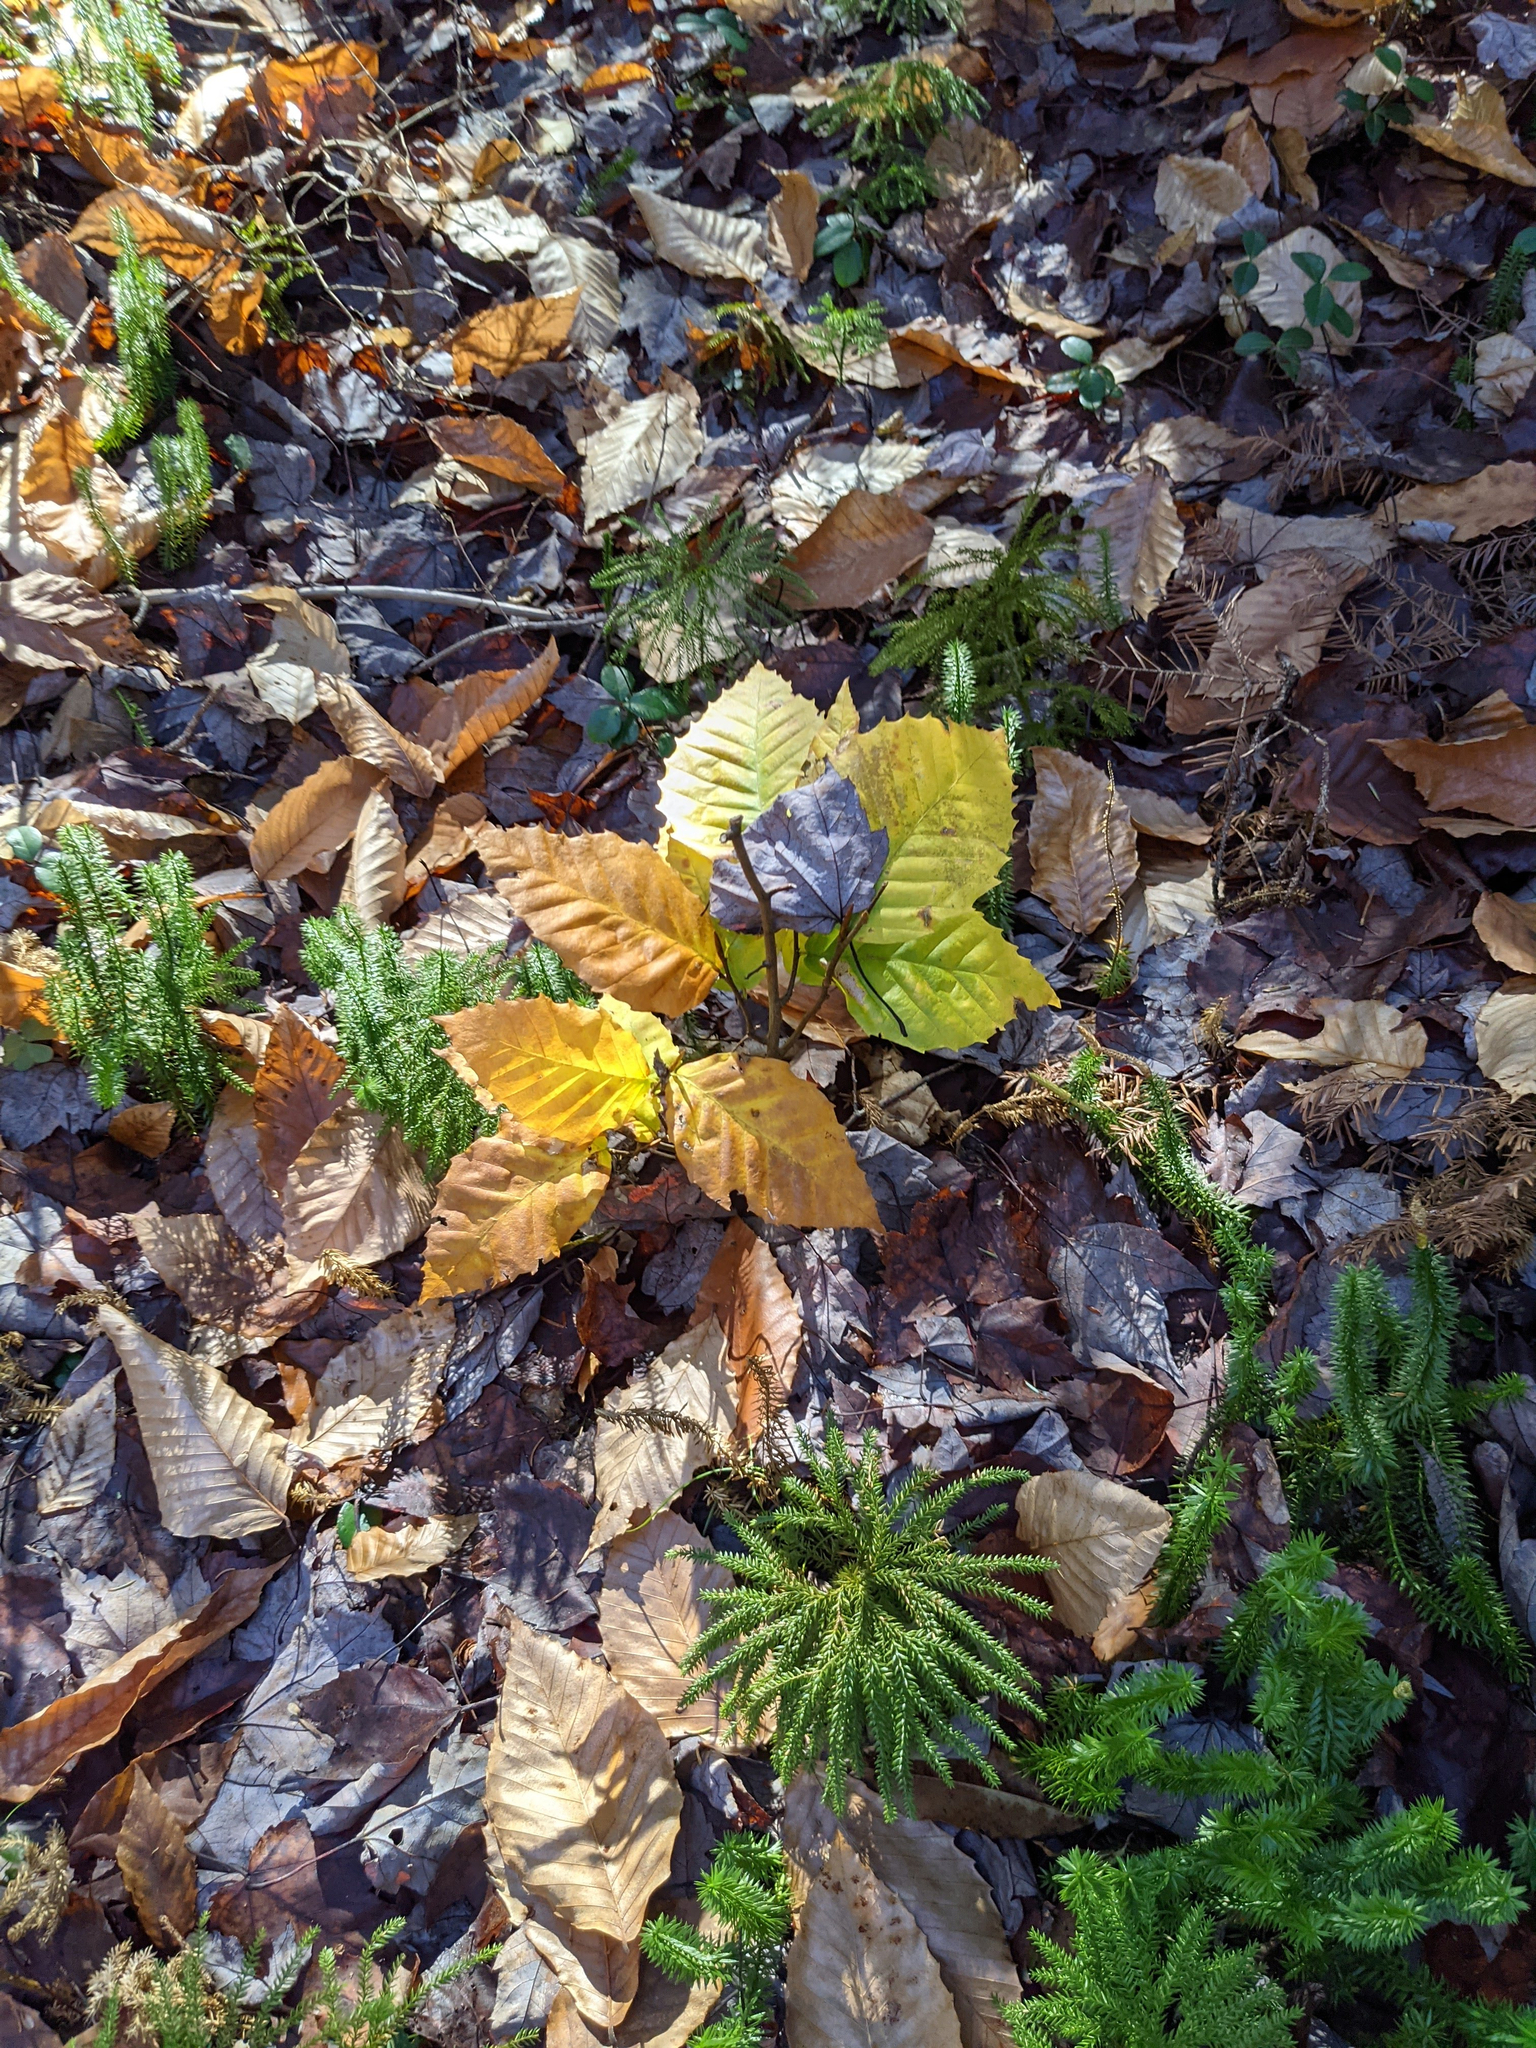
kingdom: Plantae
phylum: Tracheophyta
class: Magnoliopsida
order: Fagales
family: Fagaceae
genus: Fagus
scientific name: Fagus grandifolia
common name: American beech
